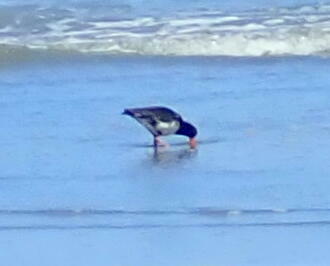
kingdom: Animalia
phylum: Chordata
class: Aves
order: Charadriiformes
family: Haematopodidae
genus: Haematopus
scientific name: Haematopus unicolor
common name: Variable oystercatcher
